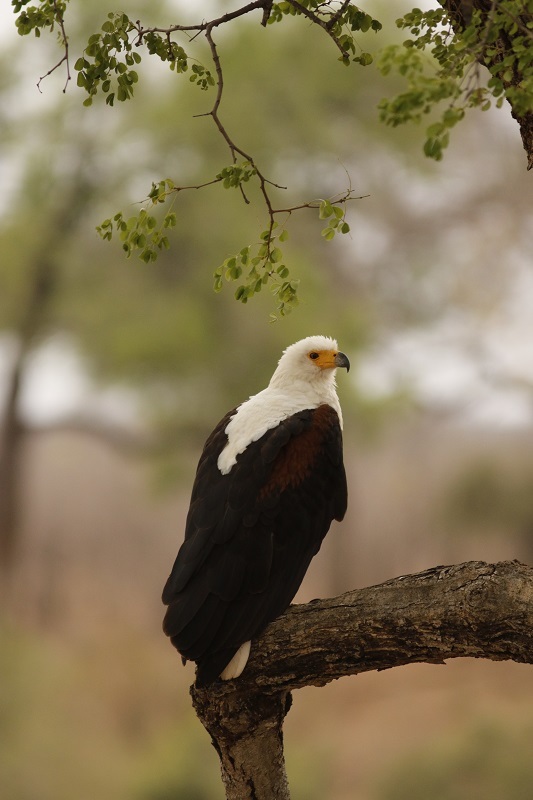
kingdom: Animalia
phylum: Chordata
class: Aves
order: Accipitriformes
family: Accipitridae
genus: Haliaeetus
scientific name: Haliaeetus vocifer
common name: African fish eagle
